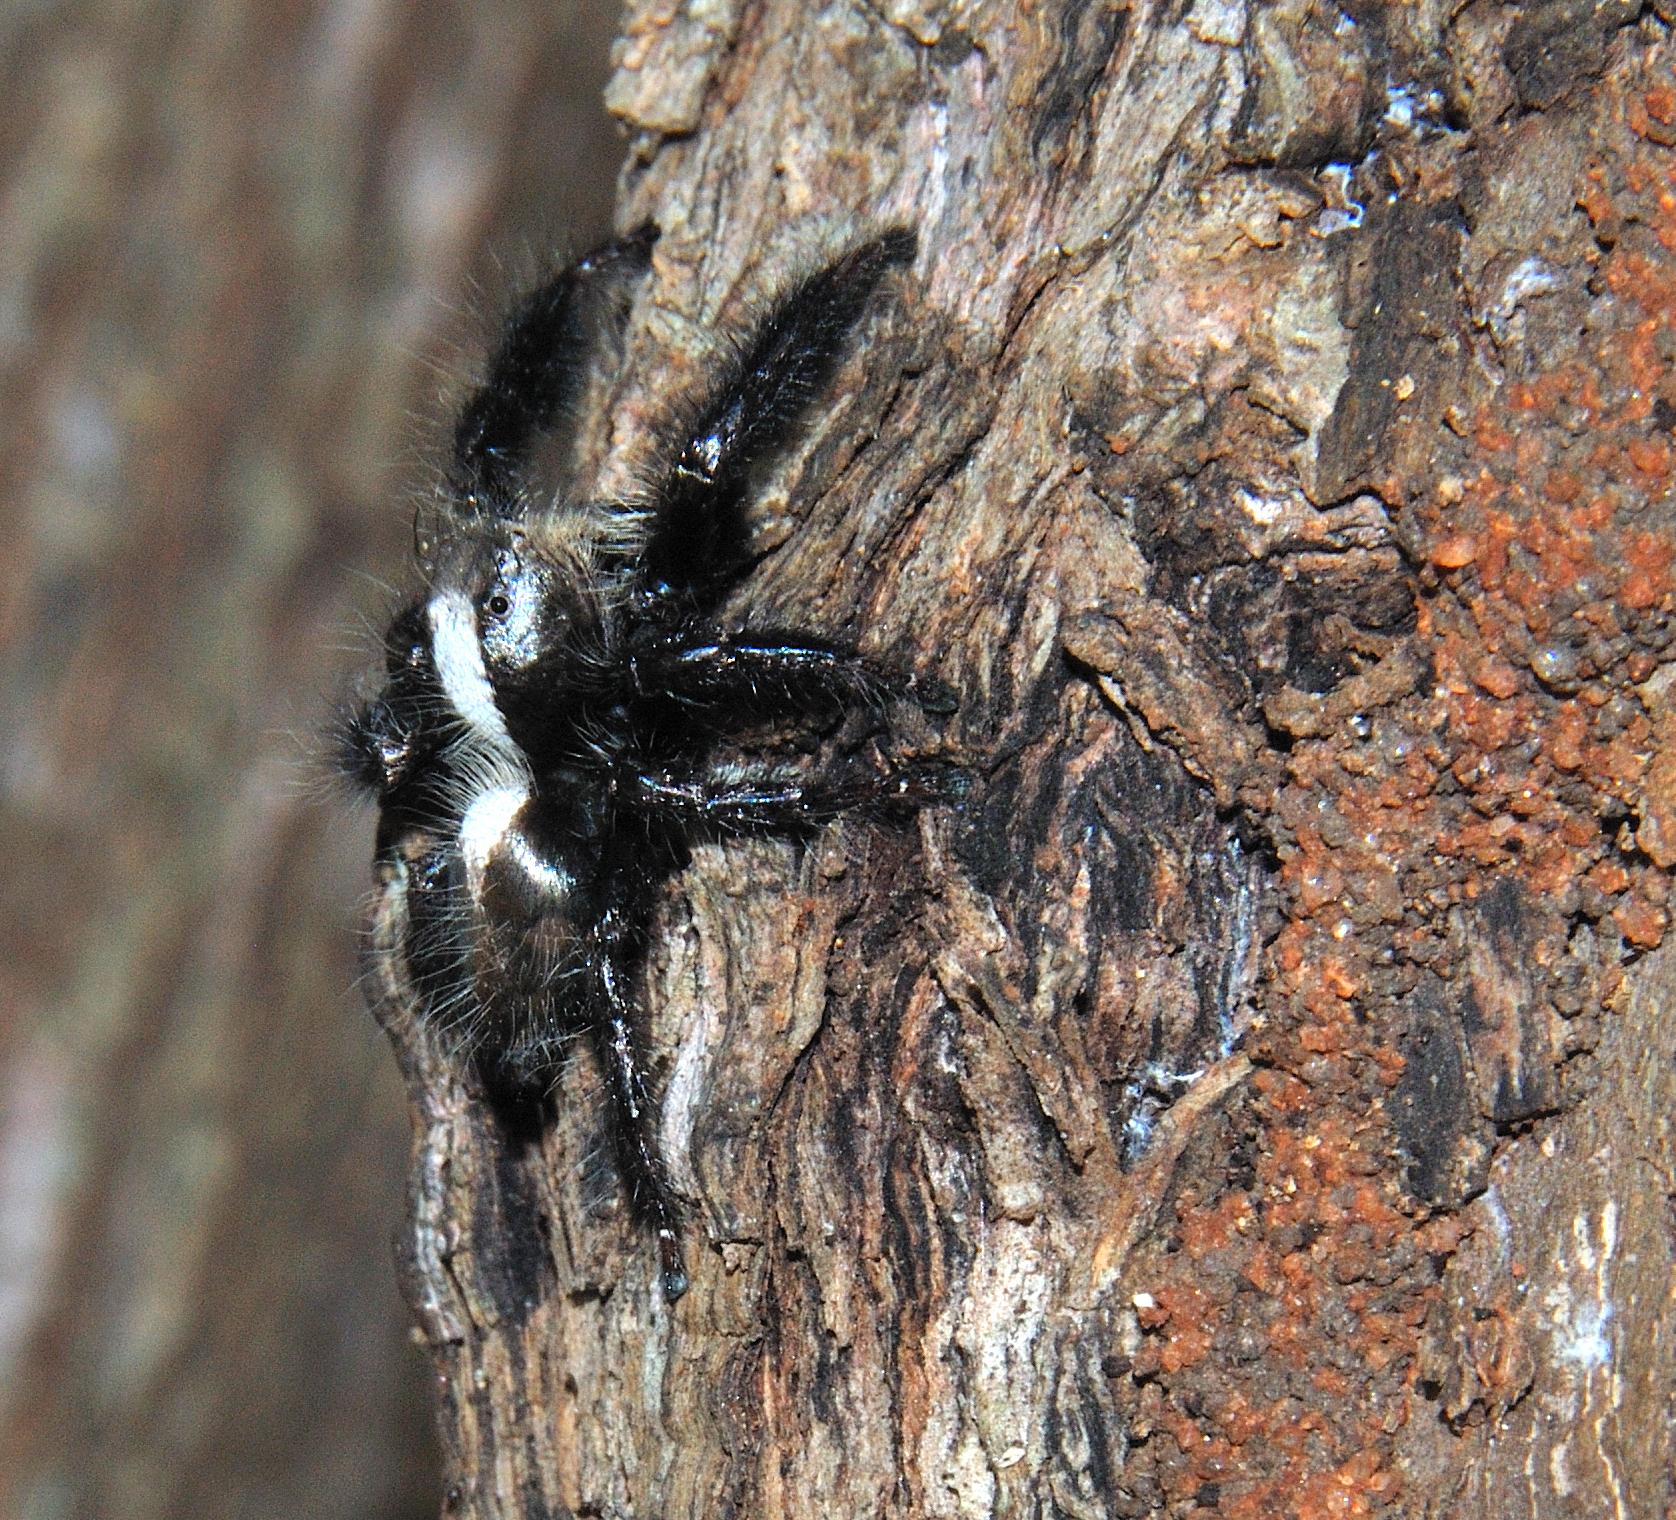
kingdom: Animalia
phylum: Arthropoda
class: Arachnida
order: Araneae
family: Salticidae
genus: Hyllus
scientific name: Hyllus treleaveni
